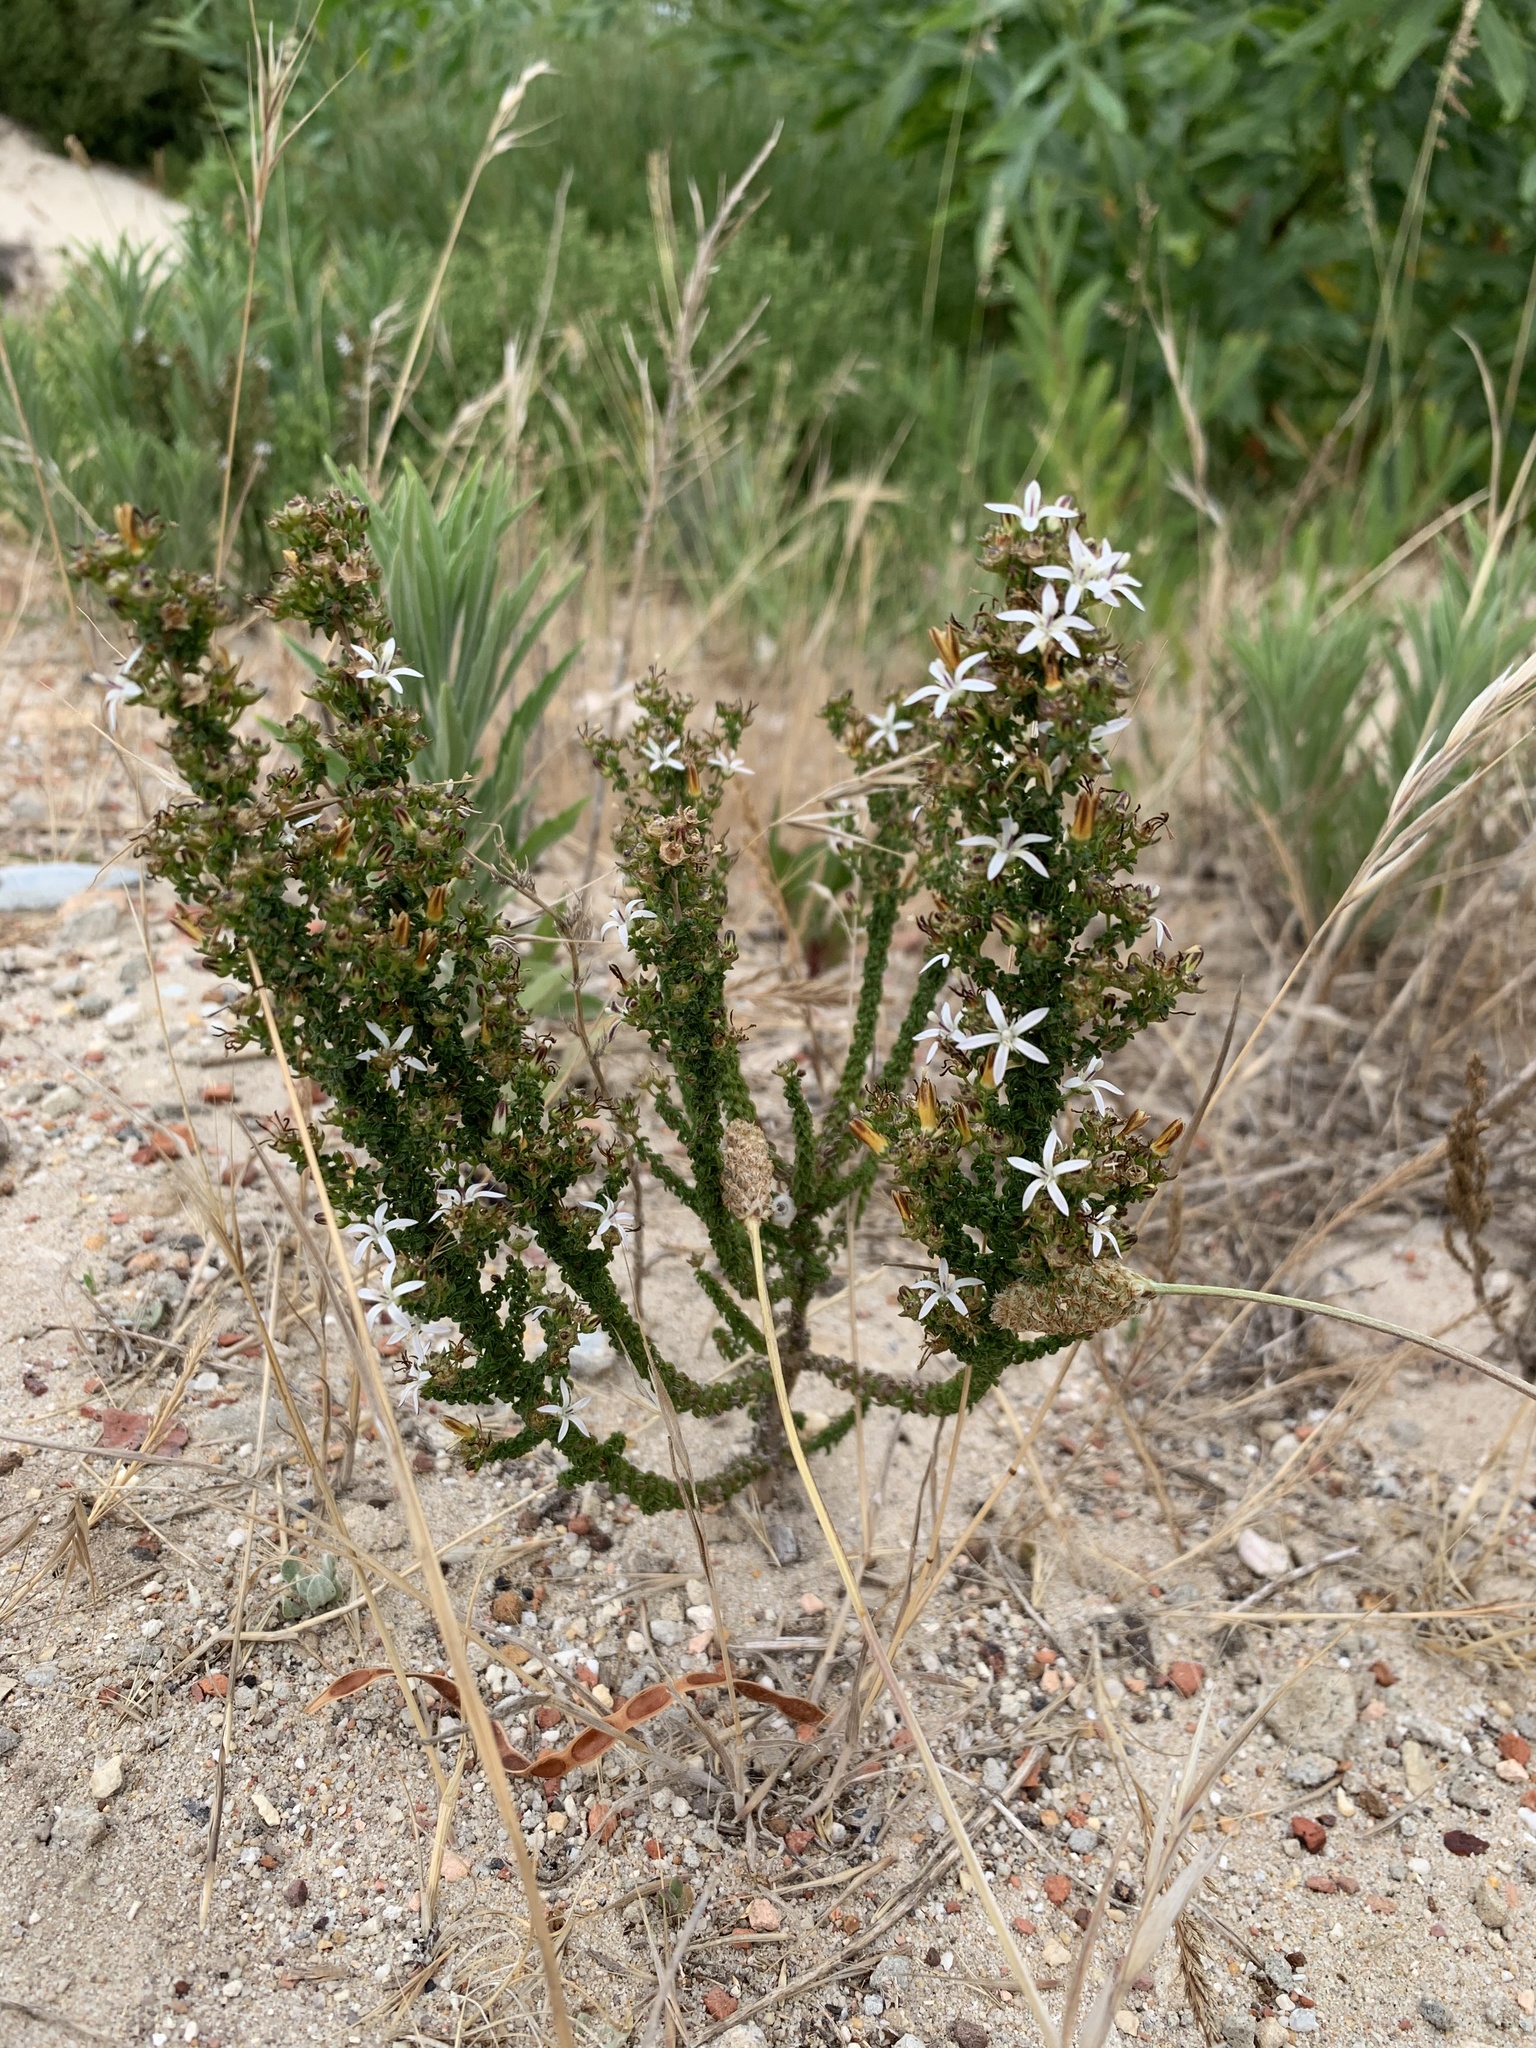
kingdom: Plantae
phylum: Tracheophyta
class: Magnoliopsida
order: Asterales
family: Campanulaceae
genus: Wahlenbergia
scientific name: Wahlenbergia tenella
